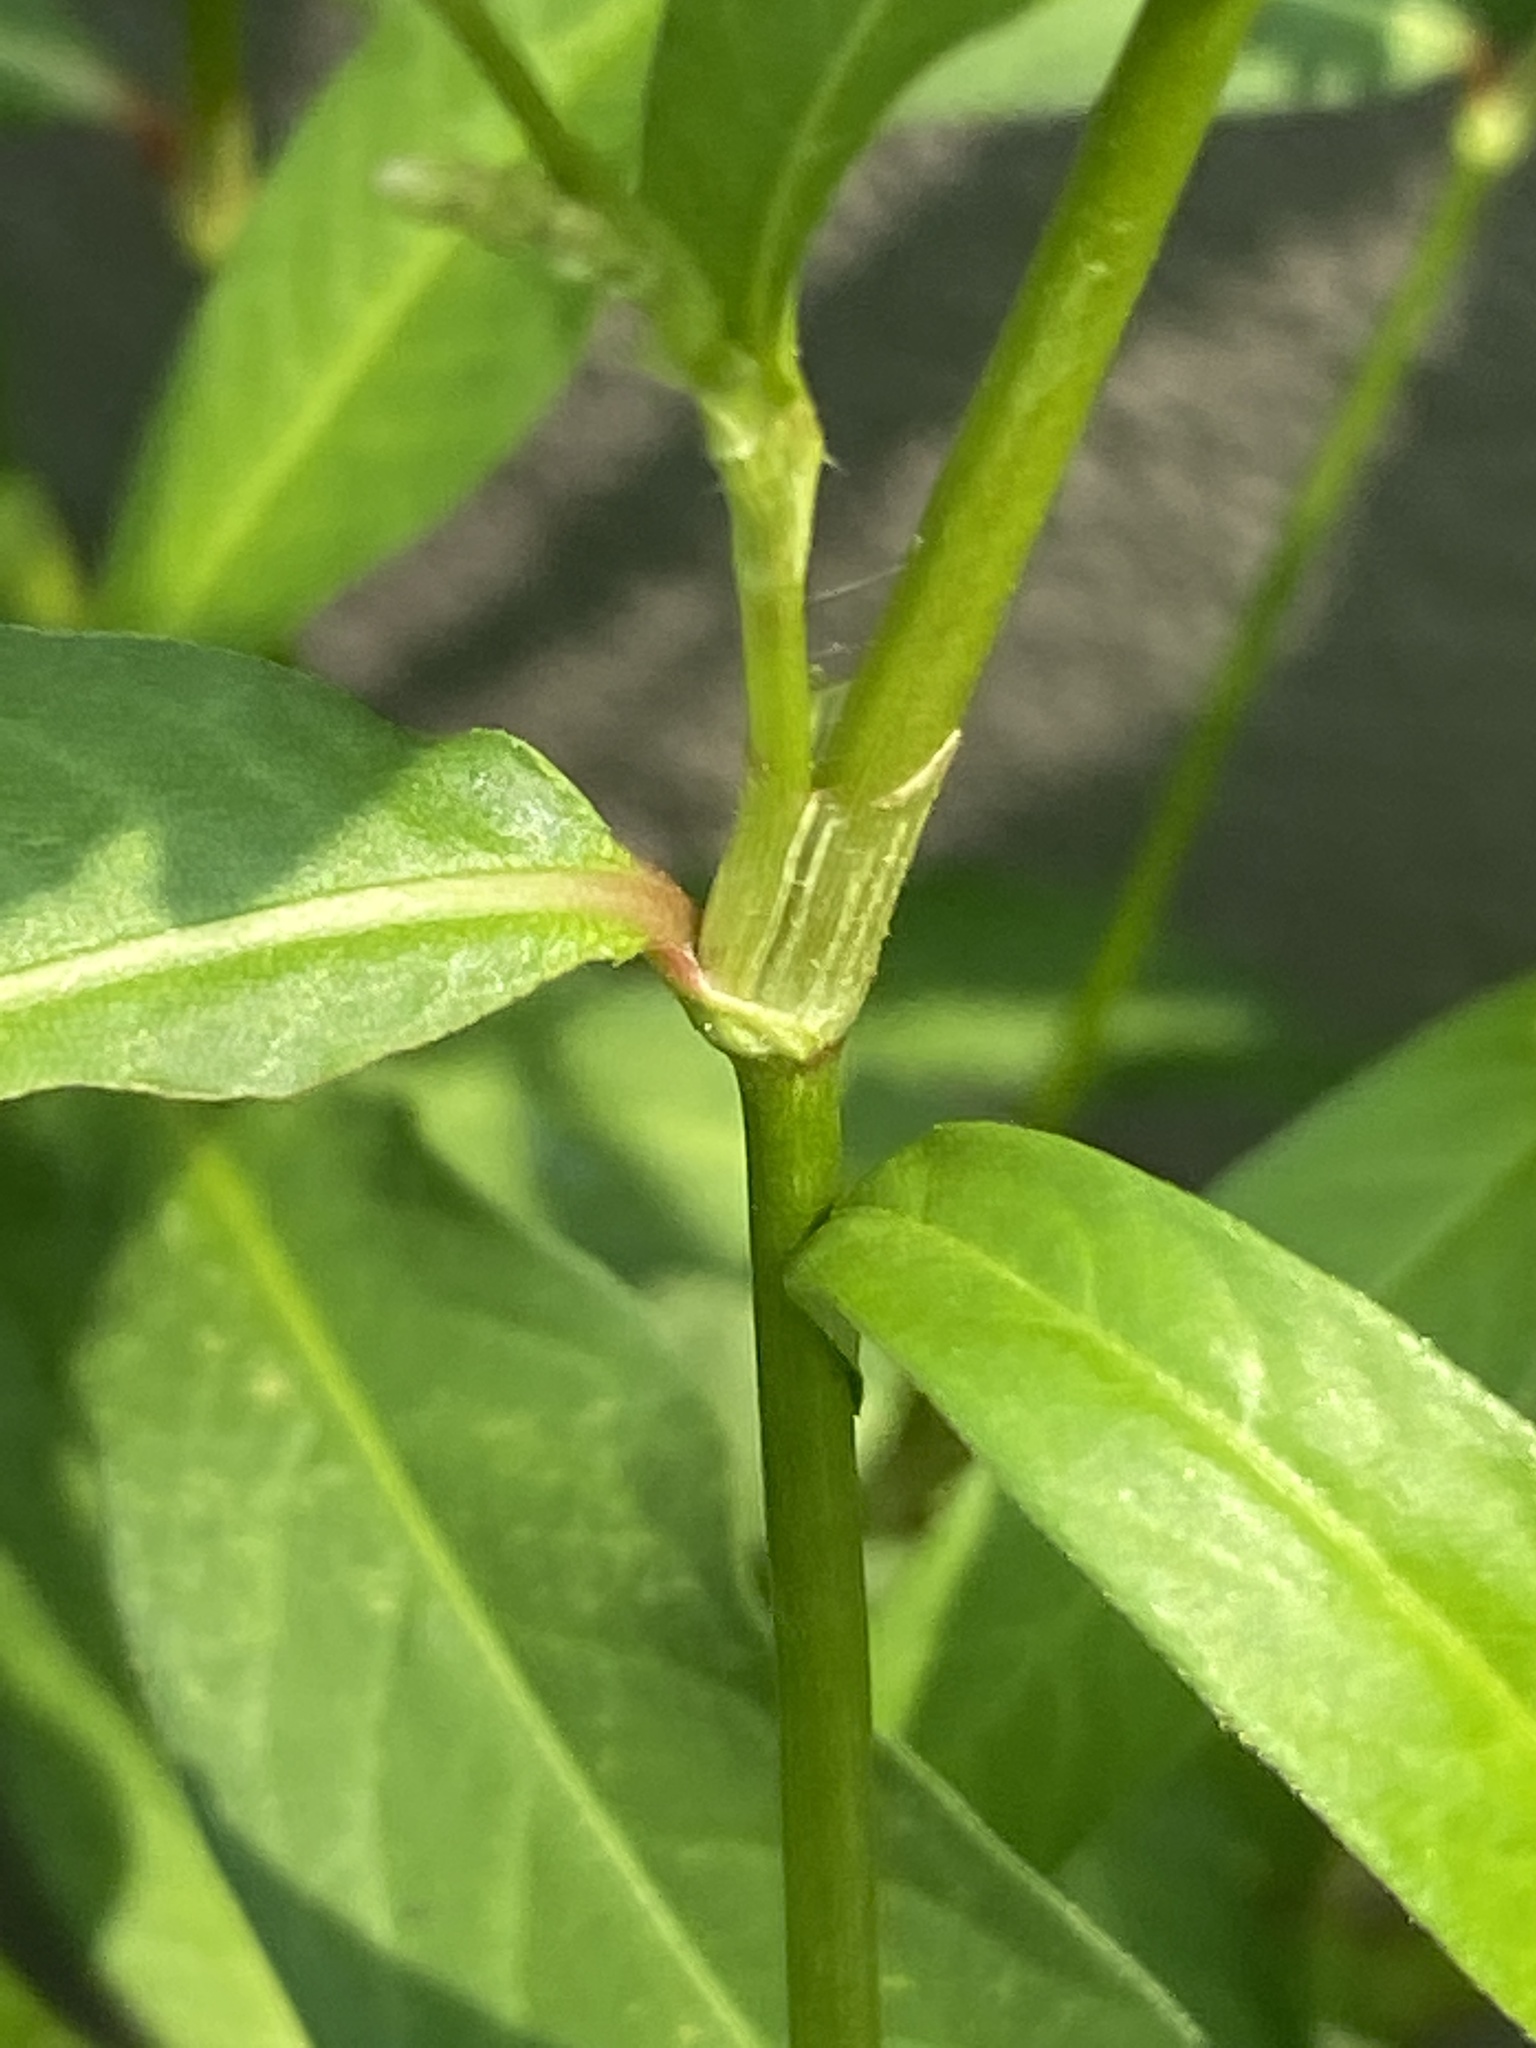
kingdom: Plantae
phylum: Tracheophyta
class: Magnoliopsida
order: Caryophyllales
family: Polygonaceae
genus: Persicaria
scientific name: Persicaria lapathifolia
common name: Curlytop knotweed
